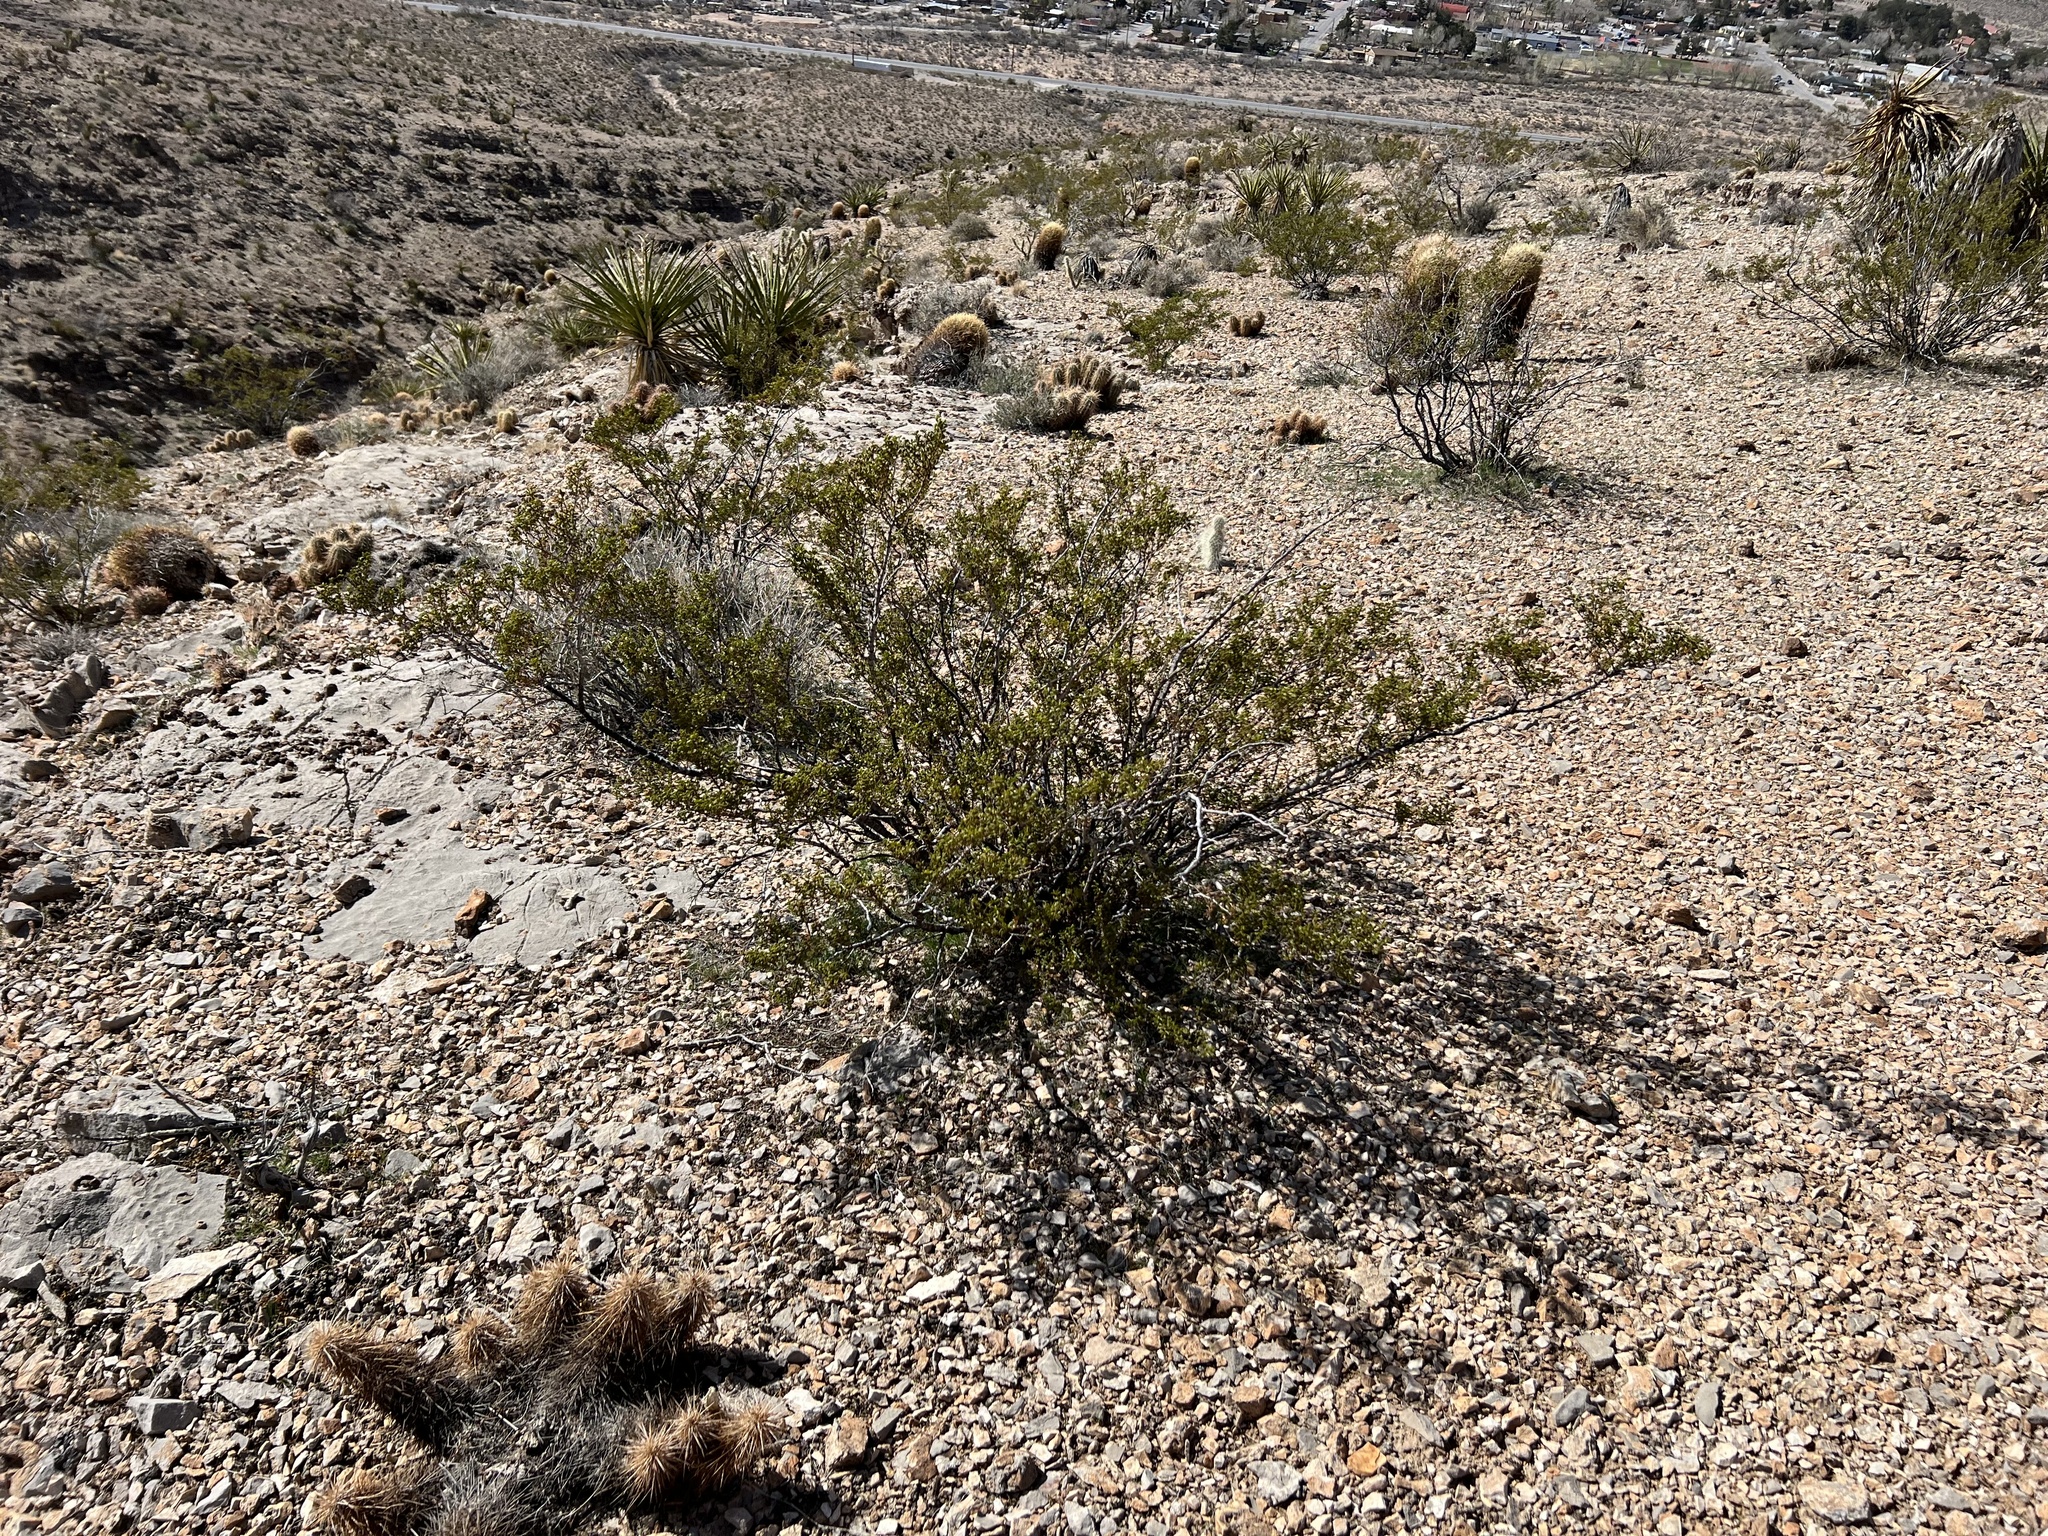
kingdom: Plantae
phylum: Tracheophyta
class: Magnoliopsida
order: Zygophyllales
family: Zygophyllaceae
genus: Larrea
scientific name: Larrea tridentata
